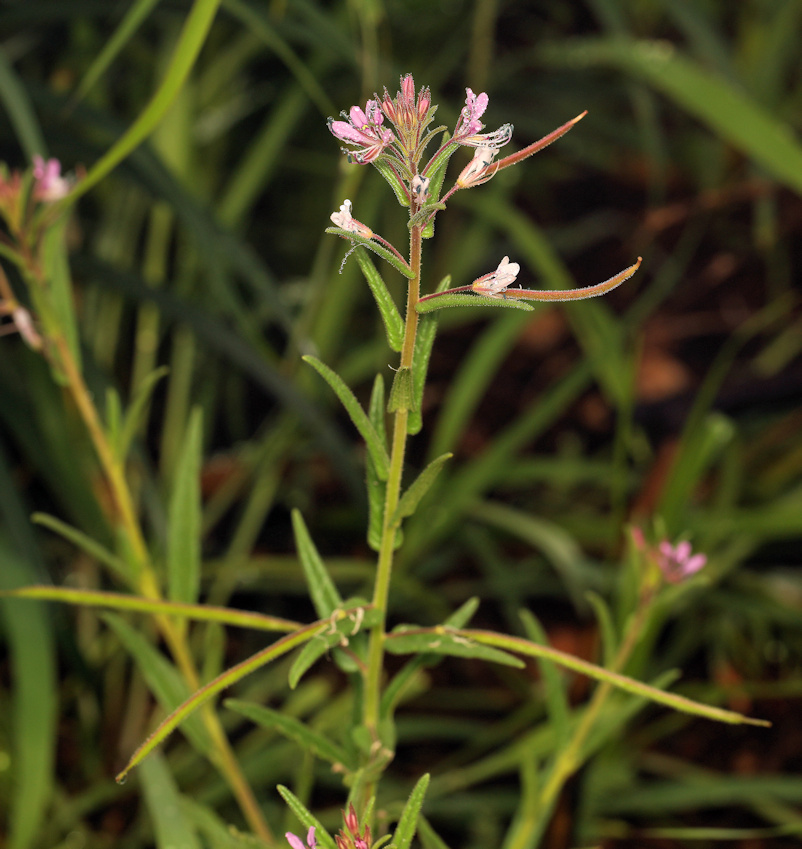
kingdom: Plantae
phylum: Tracheophyta
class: Magnoliopsida
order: Brassicales
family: Cleomaceae
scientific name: Cleomaceae
